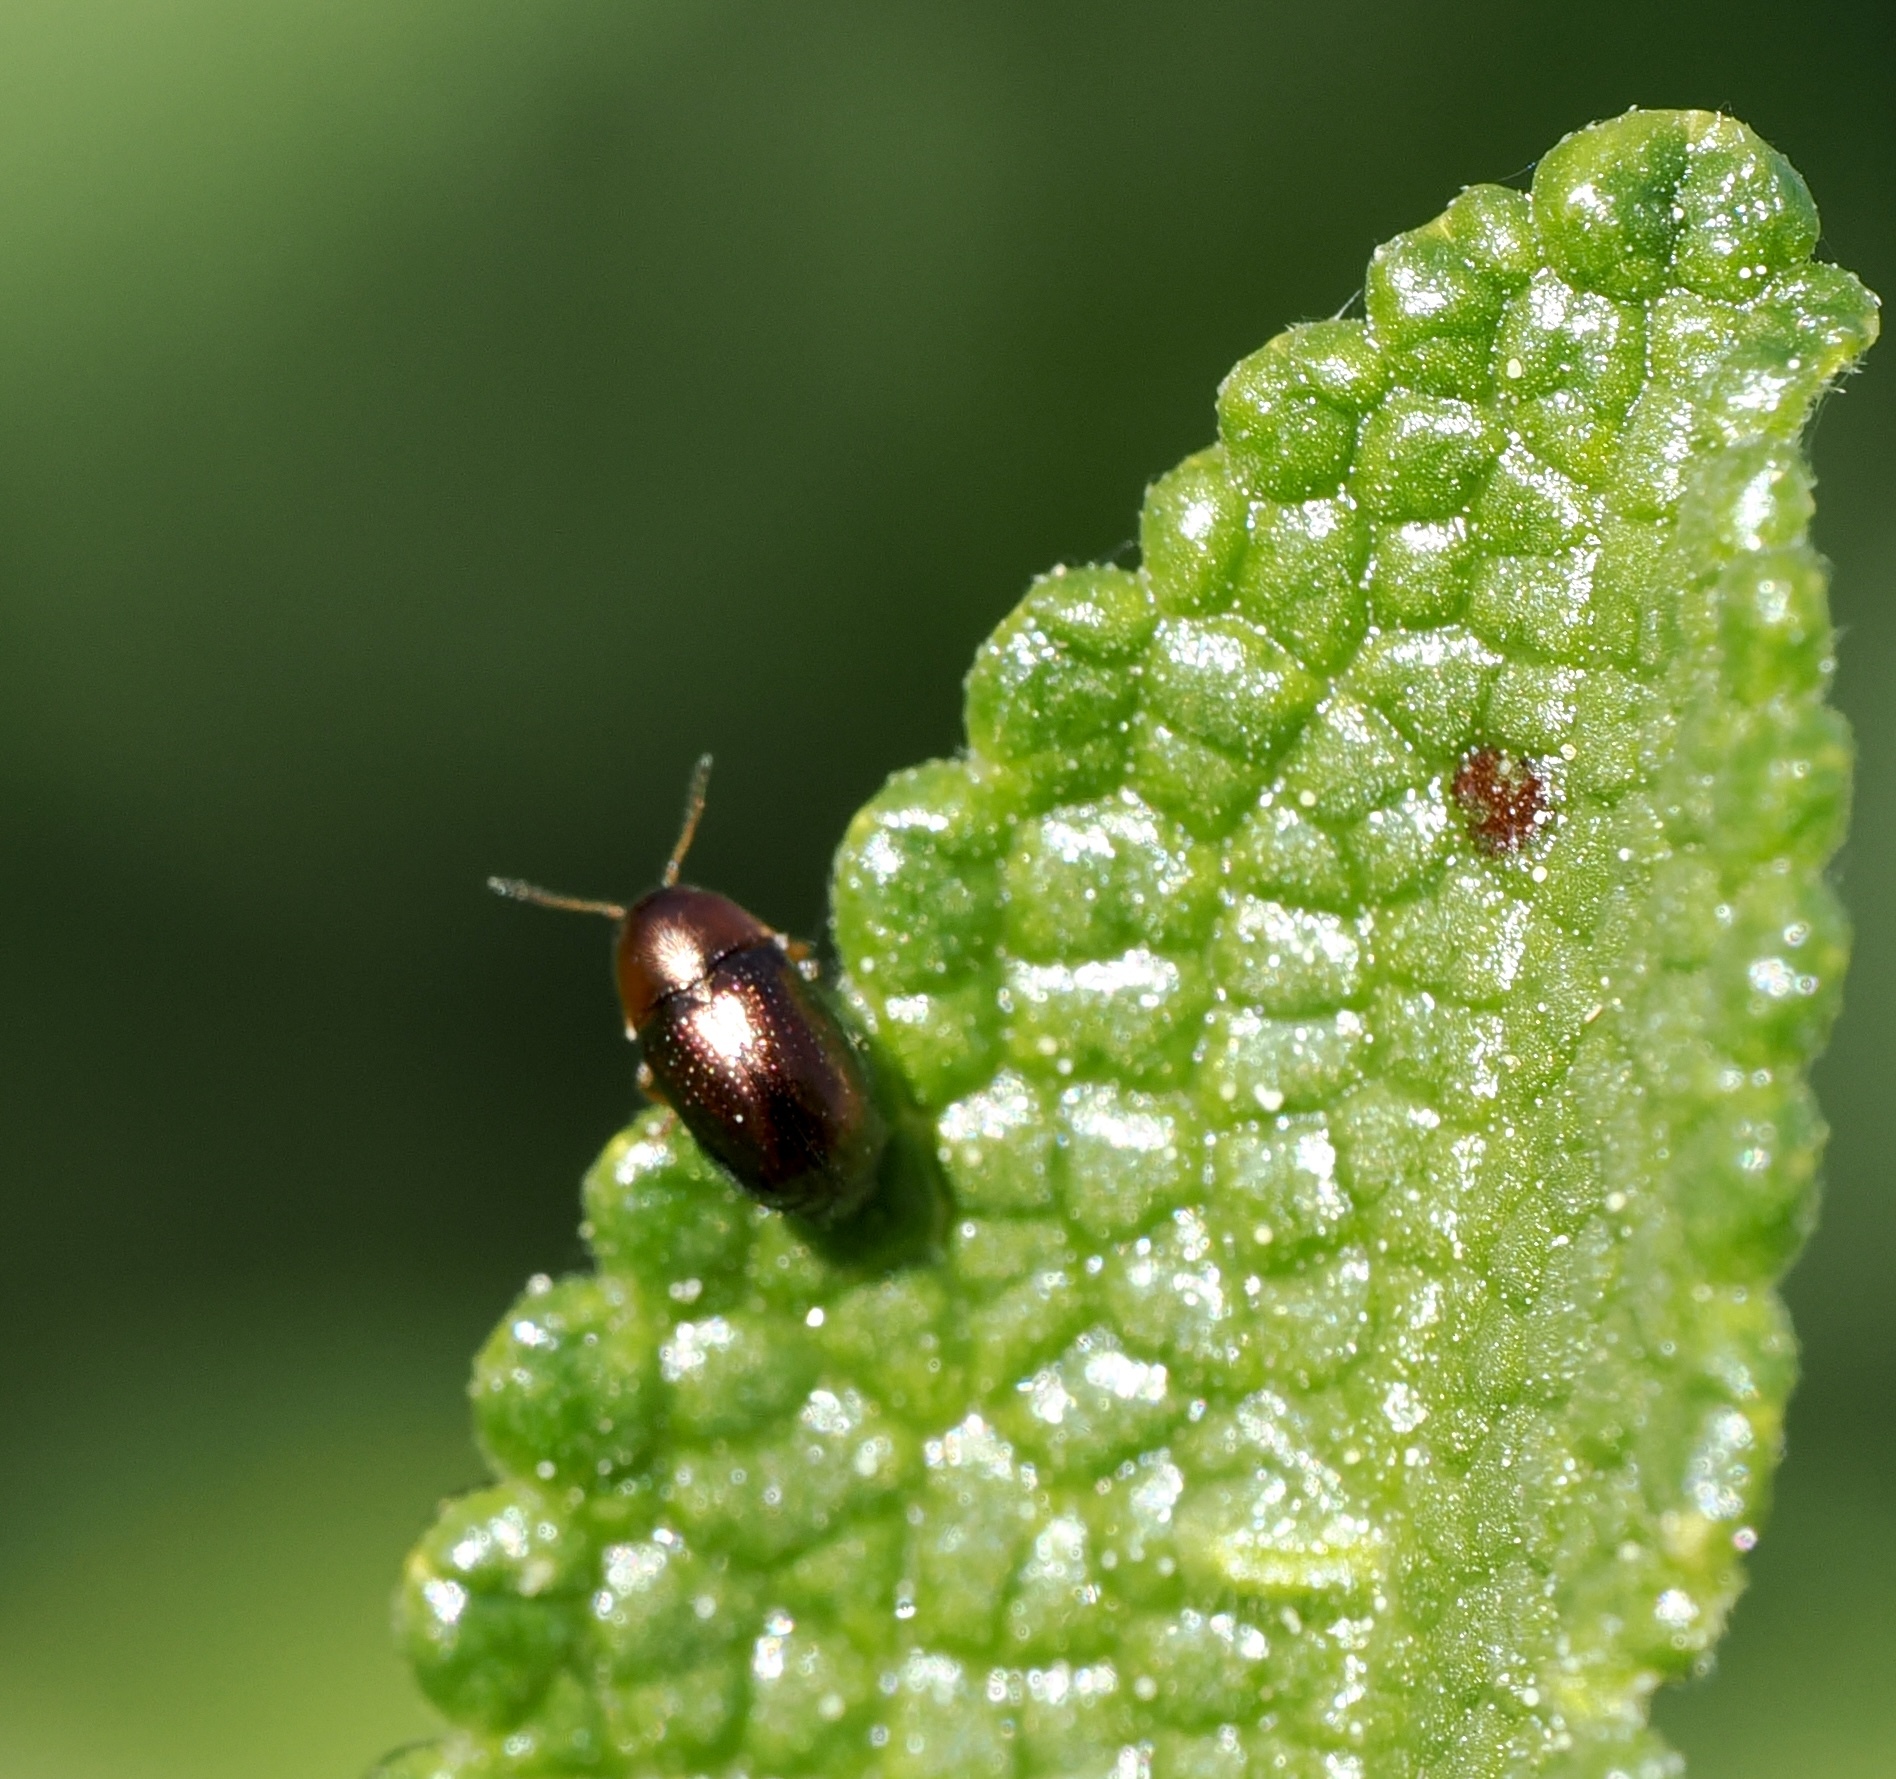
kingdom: Animalia
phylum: Arthropoda
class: Insecta
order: Coleoptera
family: Chrysomelidae
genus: Diachus
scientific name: Diachus auratus
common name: Bronze leaf beetle
